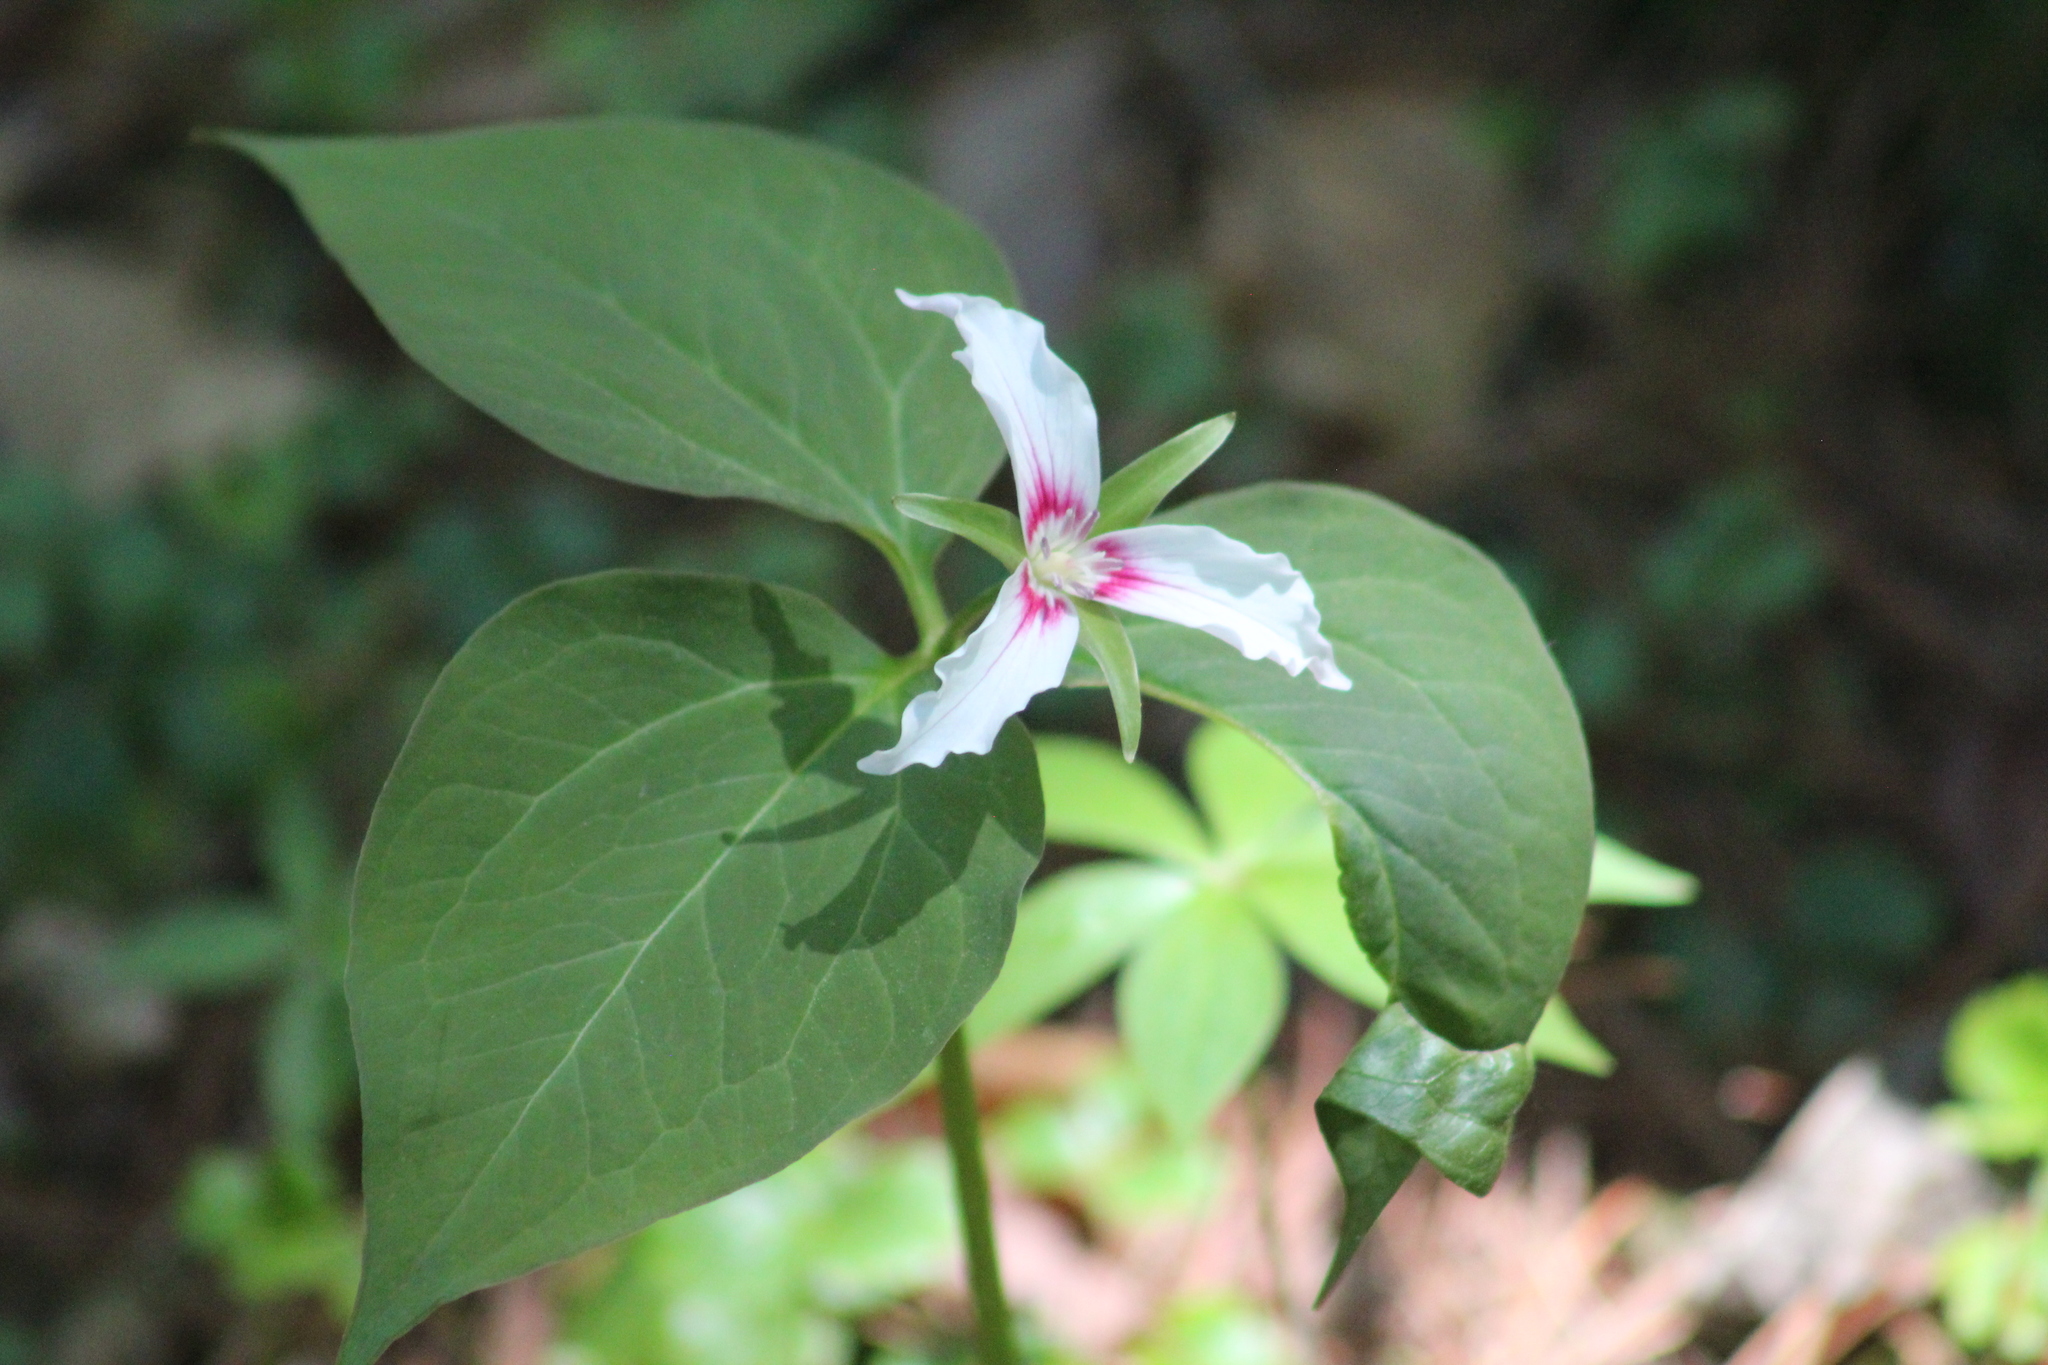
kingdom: Plantae
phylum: Tracheophyta
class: Liliopsida
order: Liliales
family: Melanthiaceae
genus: Trillium
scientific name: Trillium undulatum
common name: Paint trillium
